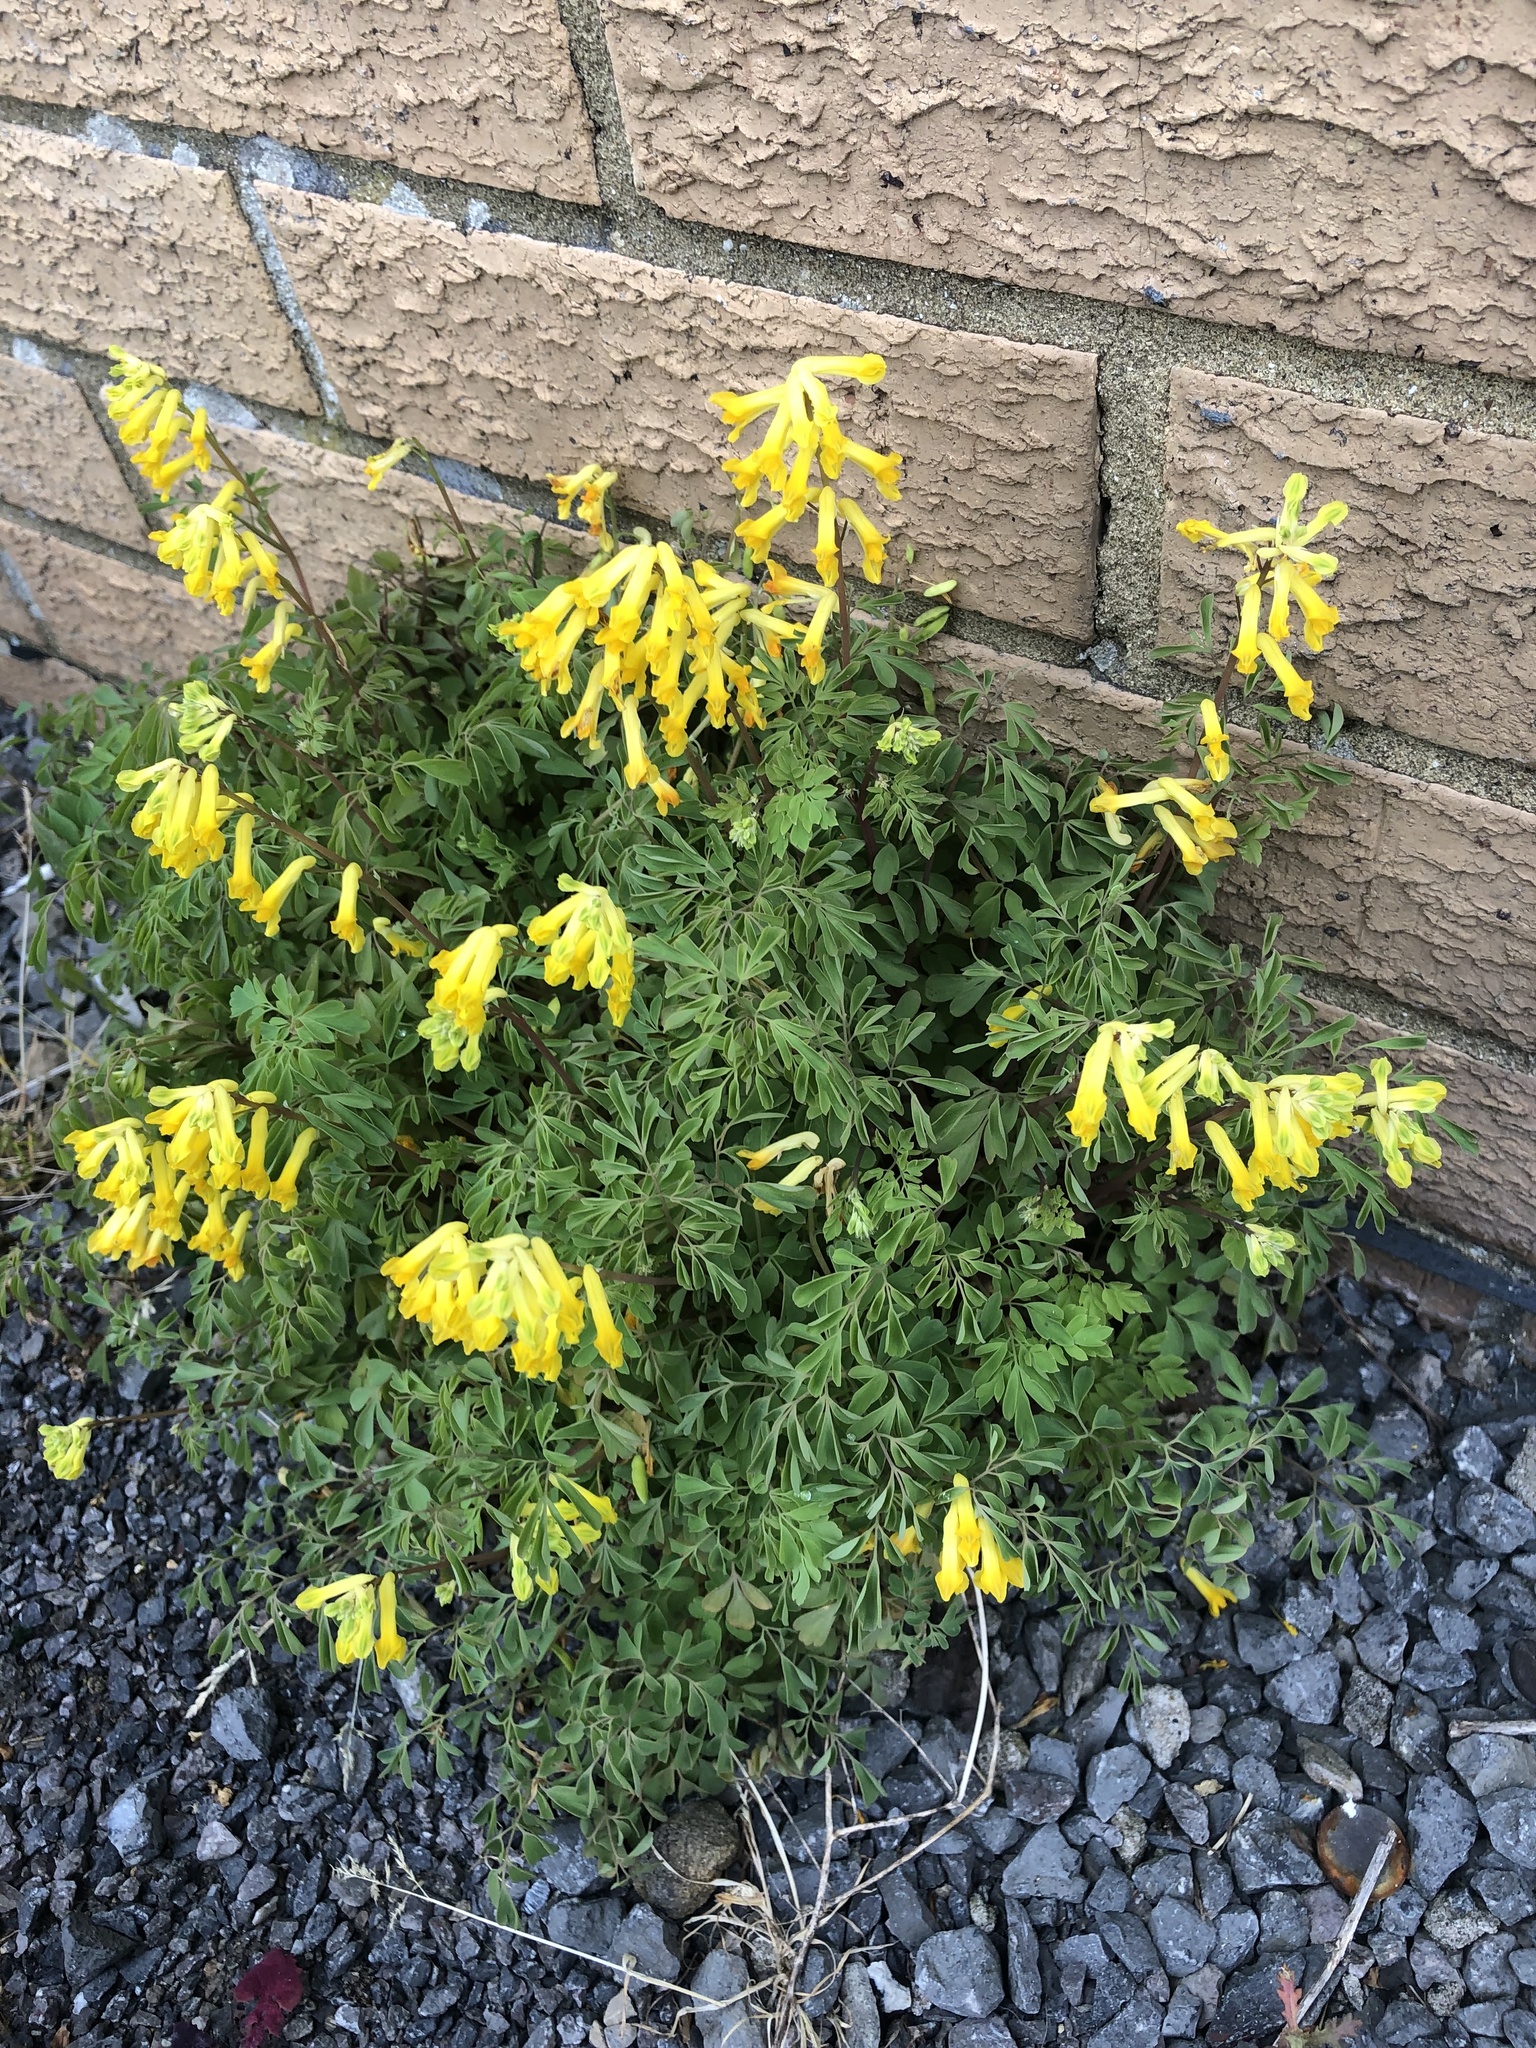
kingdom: Plantae
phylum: Tracheophyta
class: Magnoliopsida
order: Ranunculales
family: Papaveraceae
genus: Pseudofumaria
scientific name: Pseudofumaria lutea
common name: Yellow corydalis
